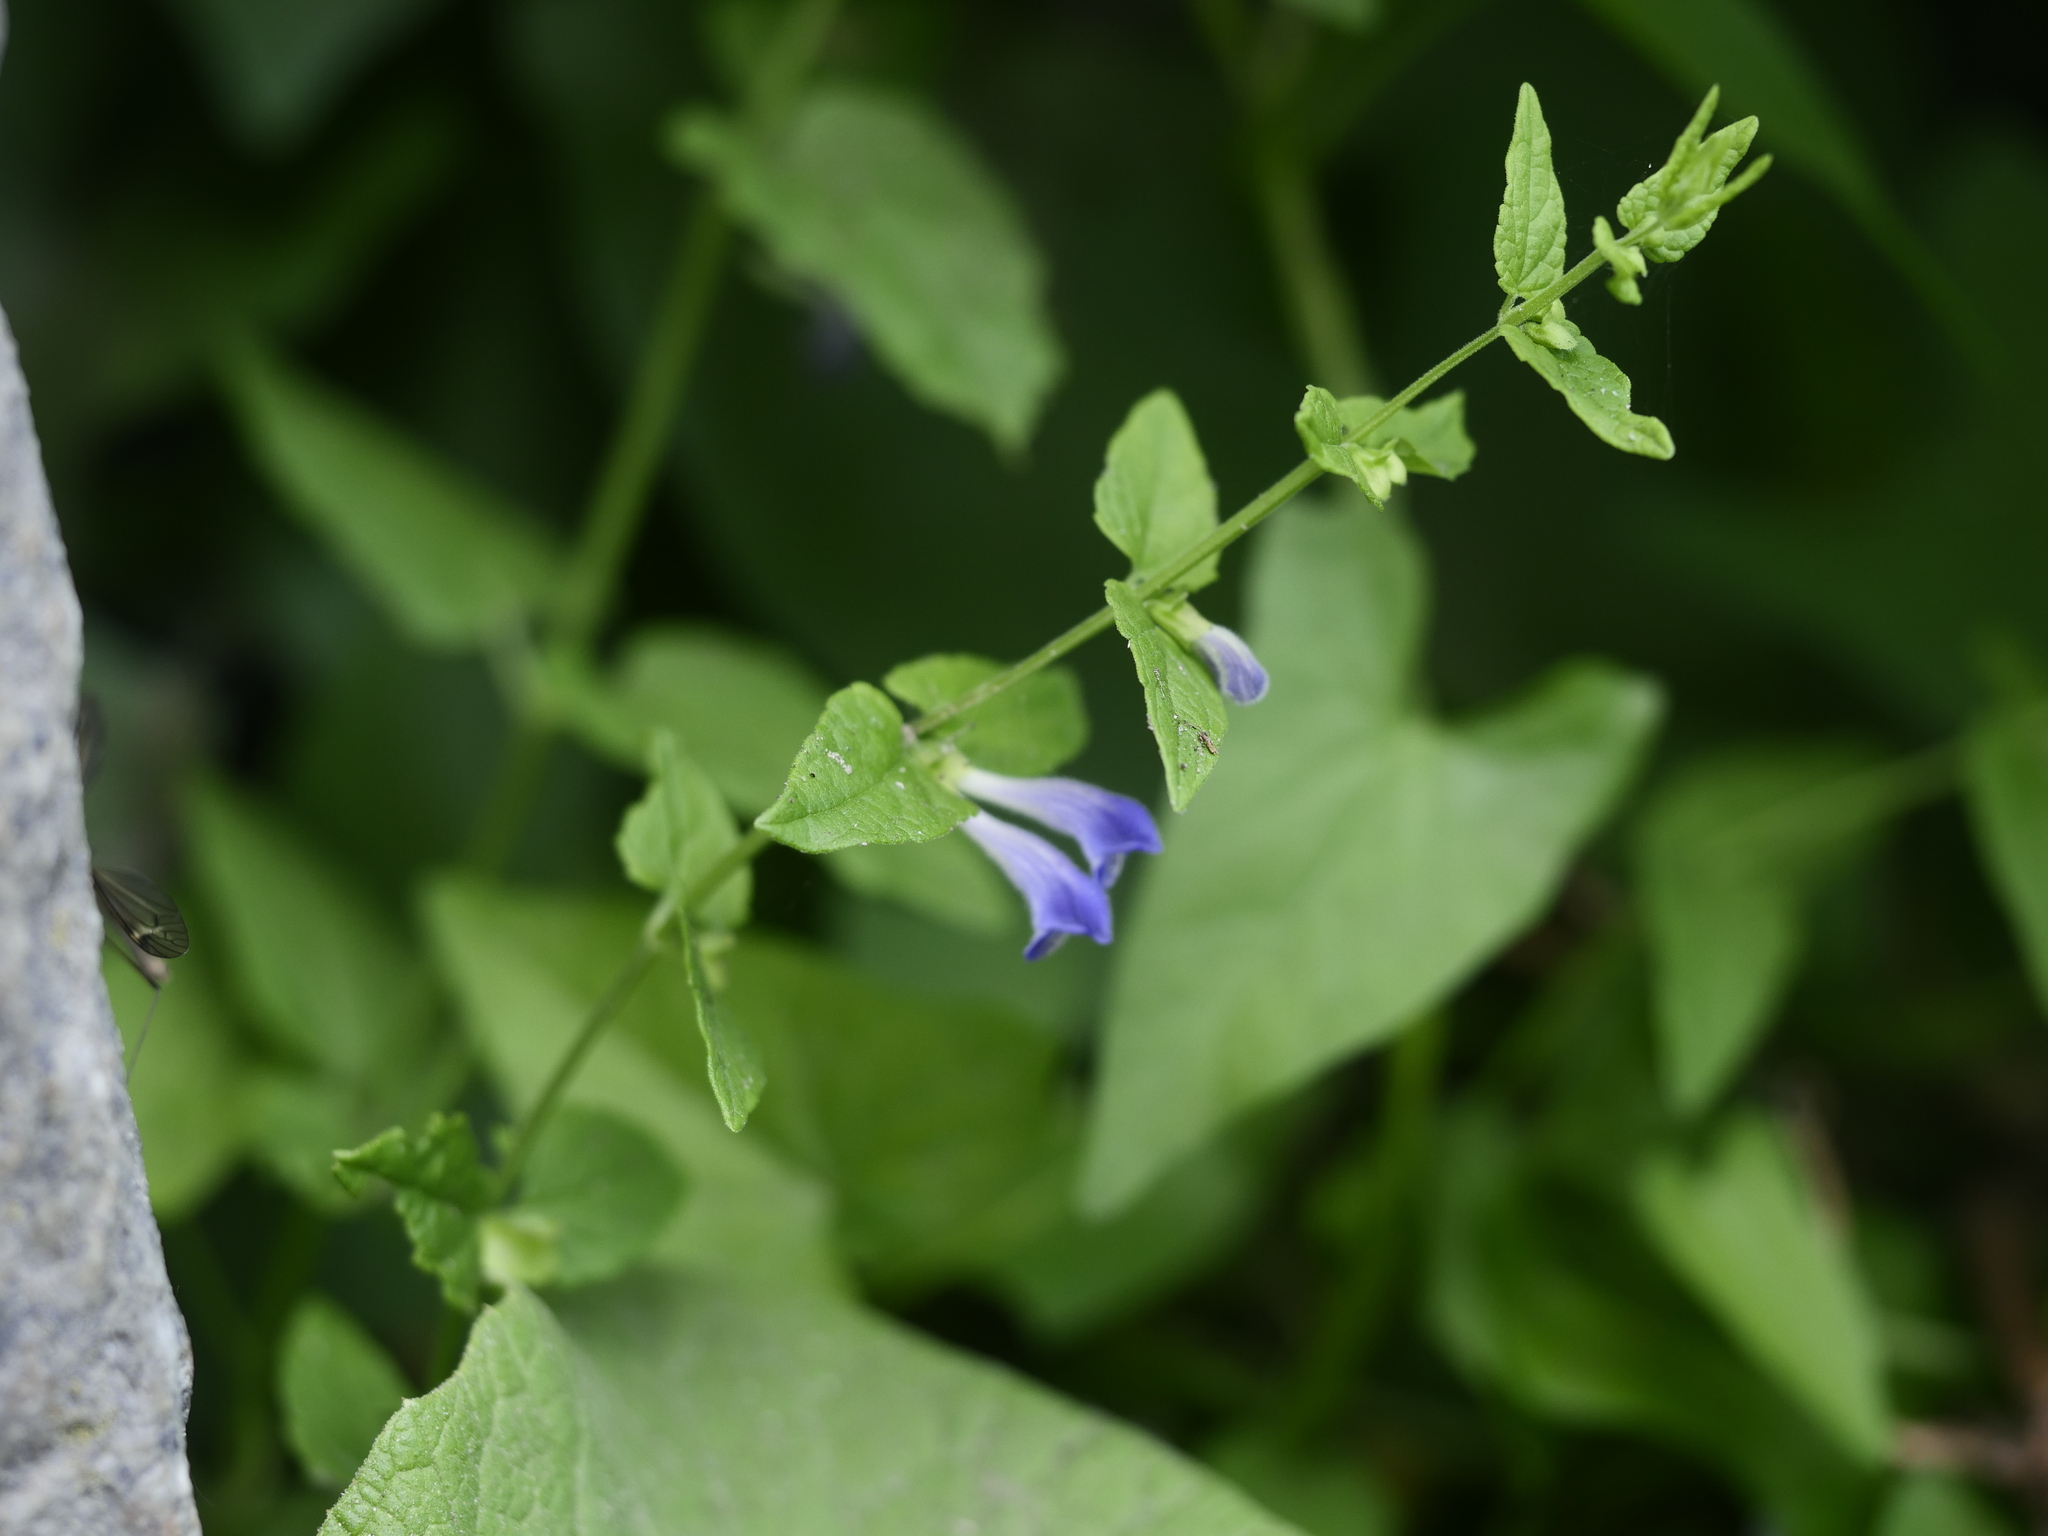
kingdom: Plantae
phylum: Tracheophyta
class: Magnoliopsida
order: Lamiales
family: Lamiaceae
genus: Scutellaria
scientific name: Scutellaria galericulata
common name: Skullcap
